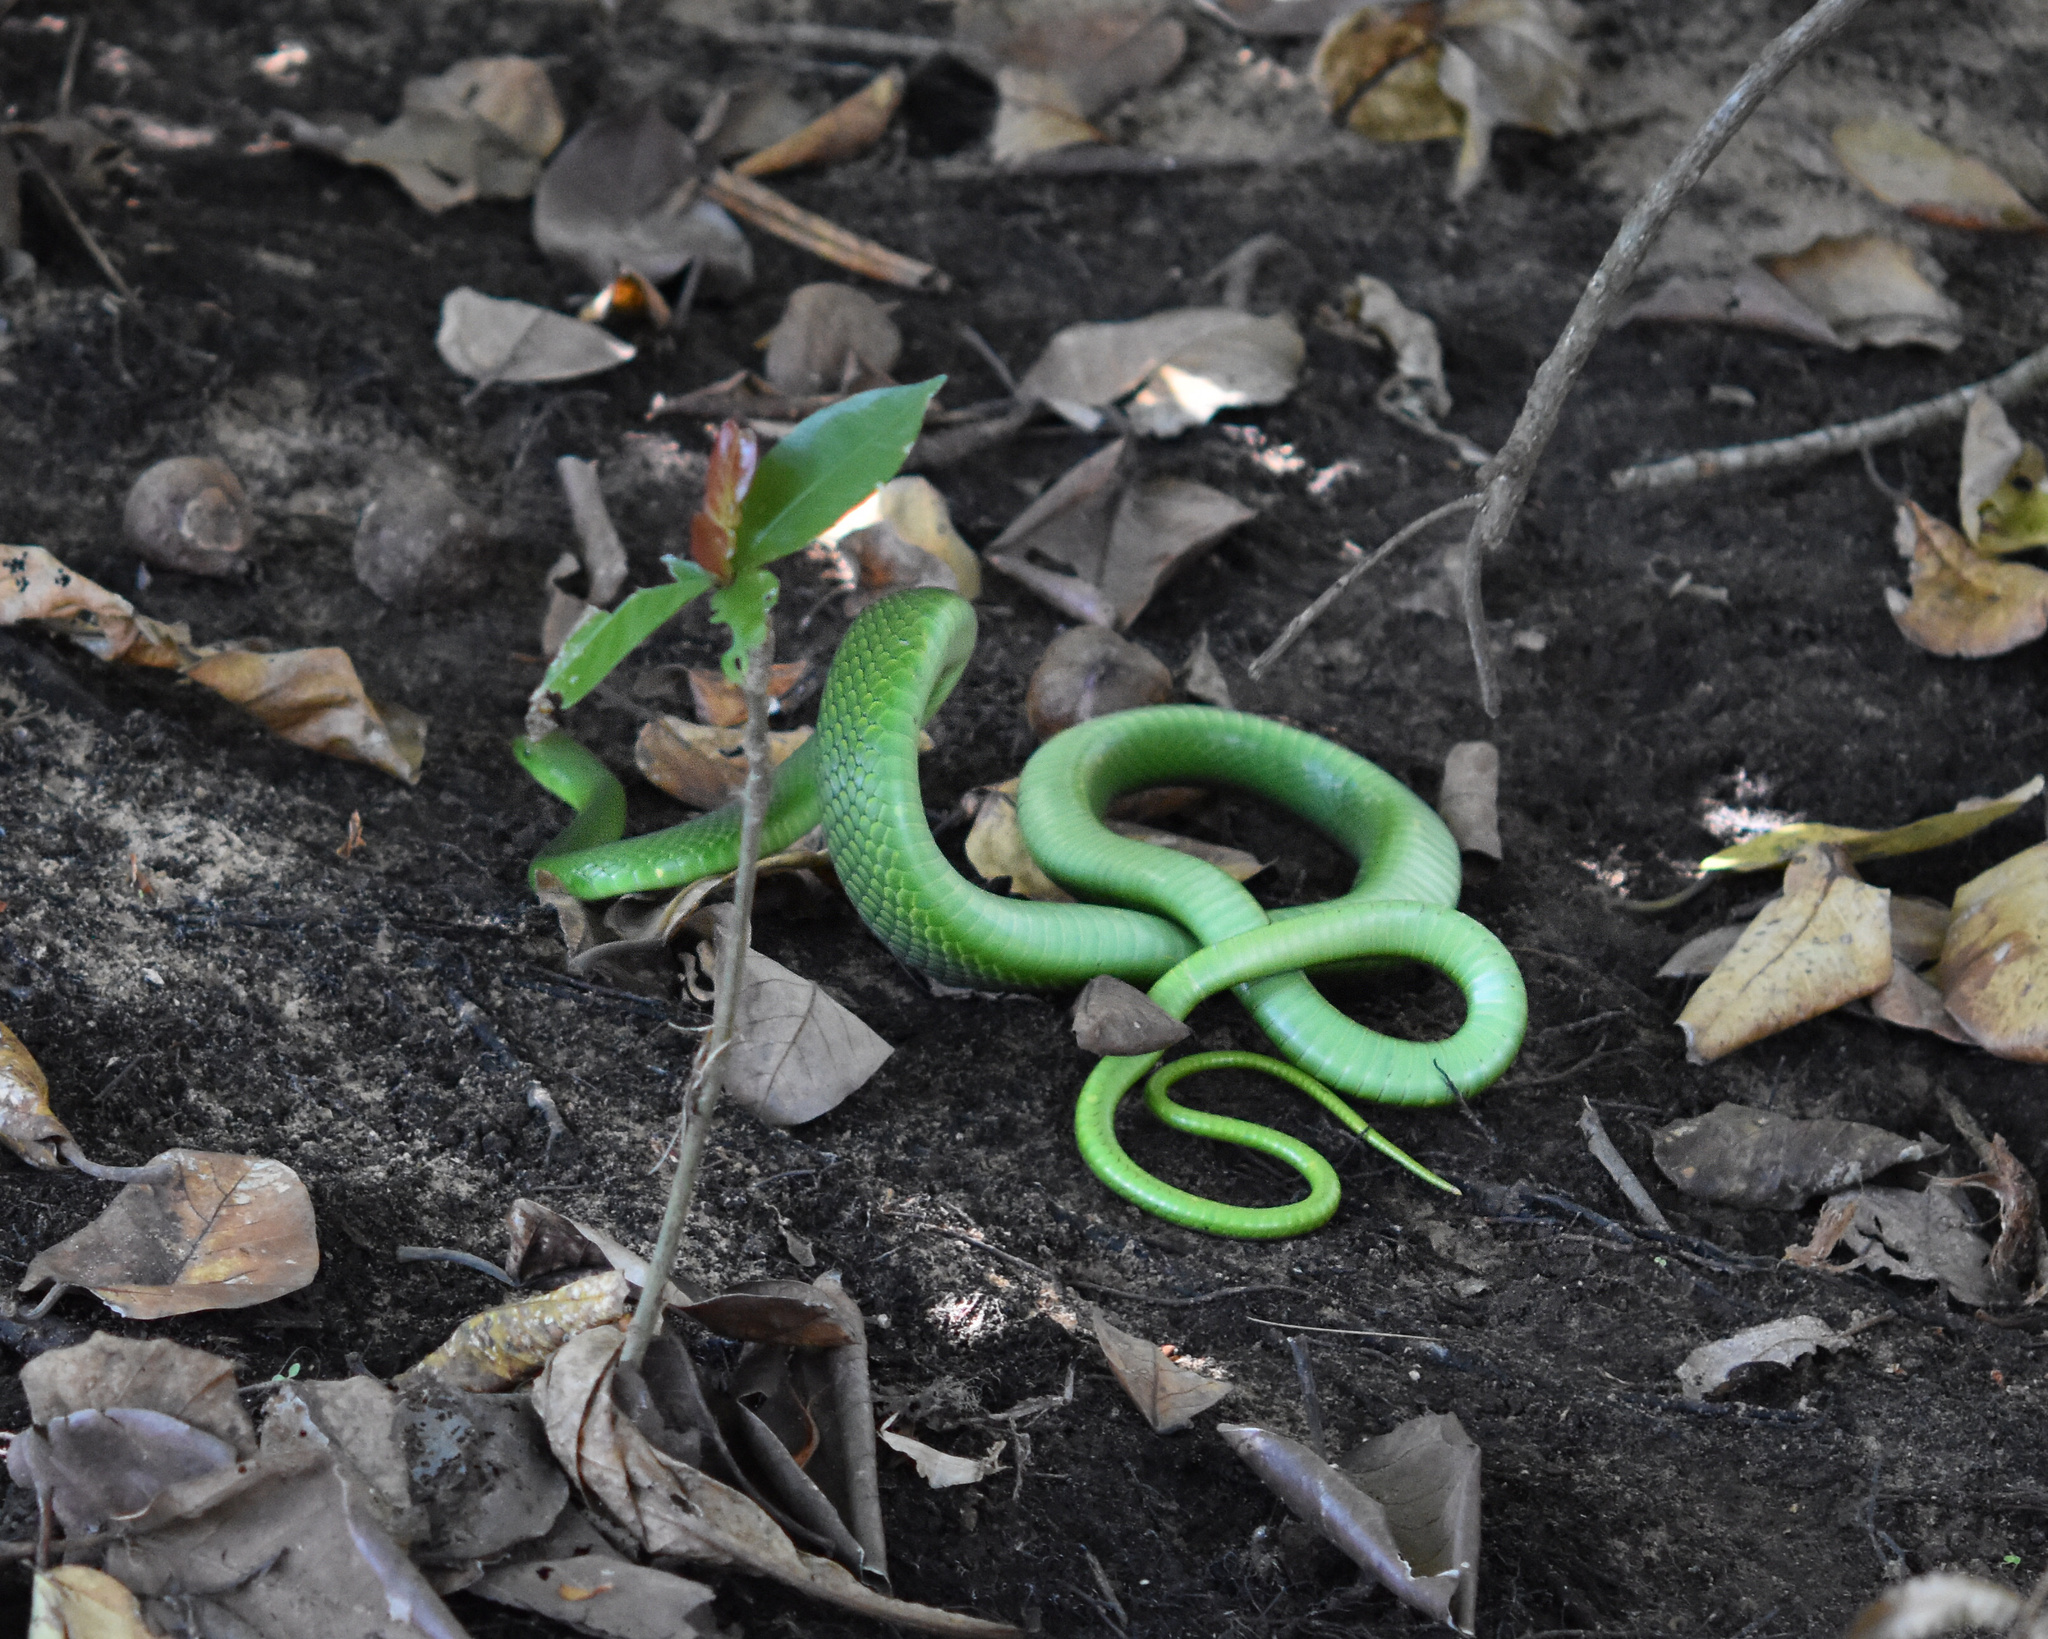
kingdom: Animalia
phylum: Chordata
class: Squamata
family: Elapidae
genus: Dendroaspis
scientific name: Dendroaspis angusticeps
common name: Green mamba
